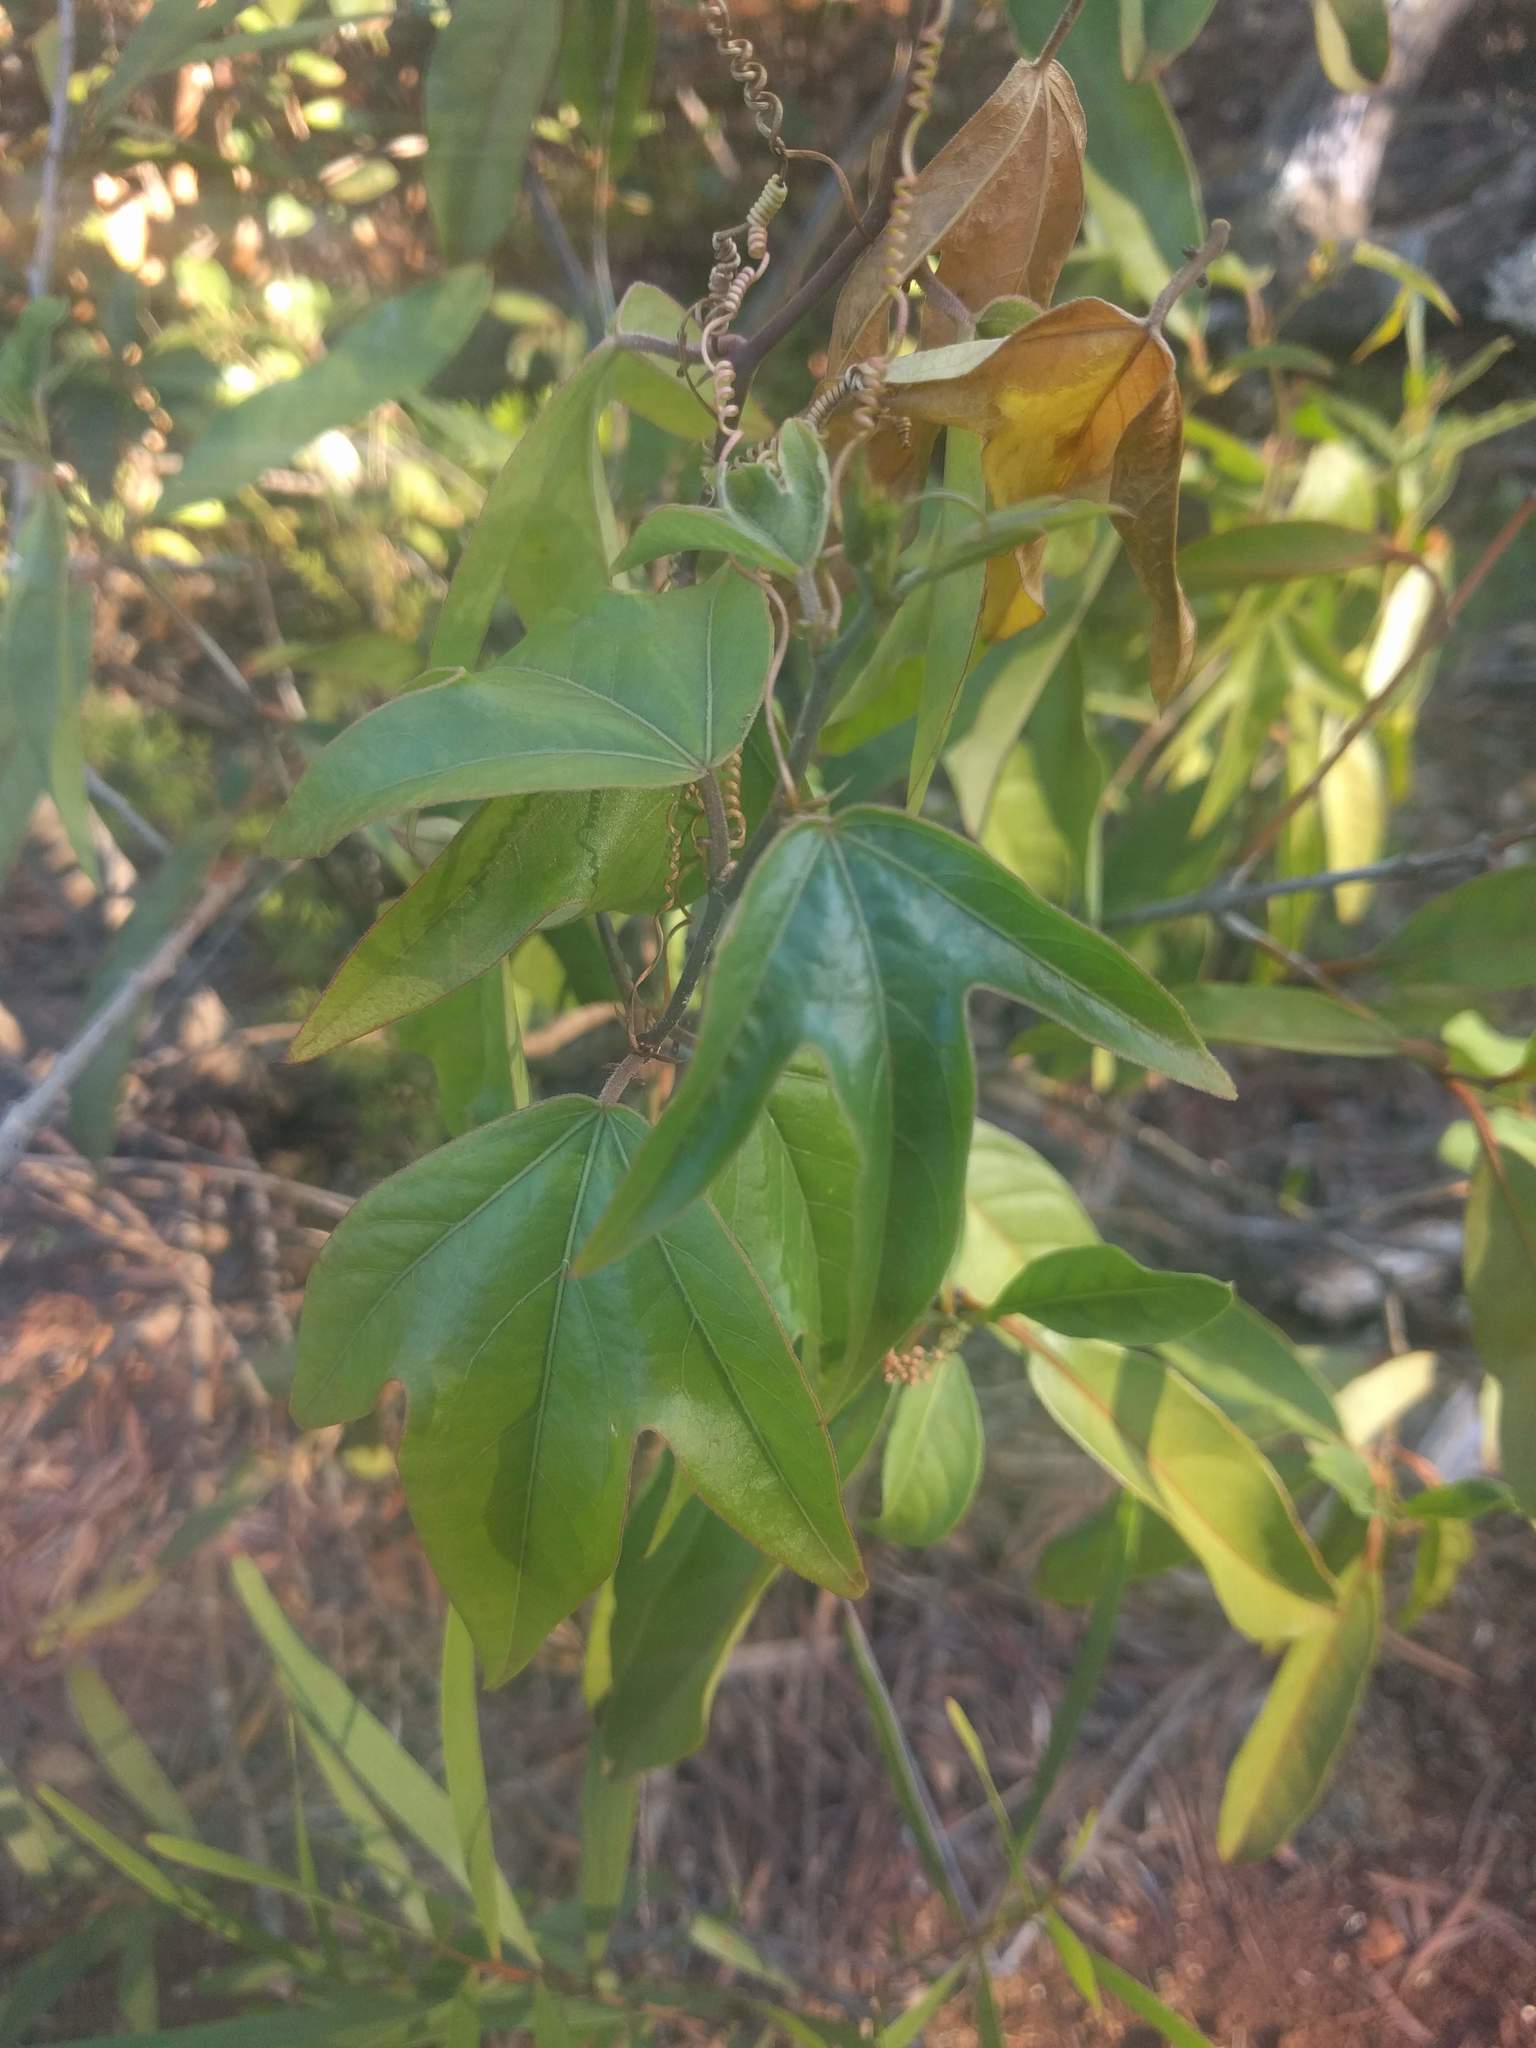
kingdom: Plantae
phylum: Tracheophyta
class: Magnoliopsida
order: Malpighiales
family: Passifloraceae
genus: Passiflora
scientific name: Passiflora suberosa
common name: Wild passionfruit
